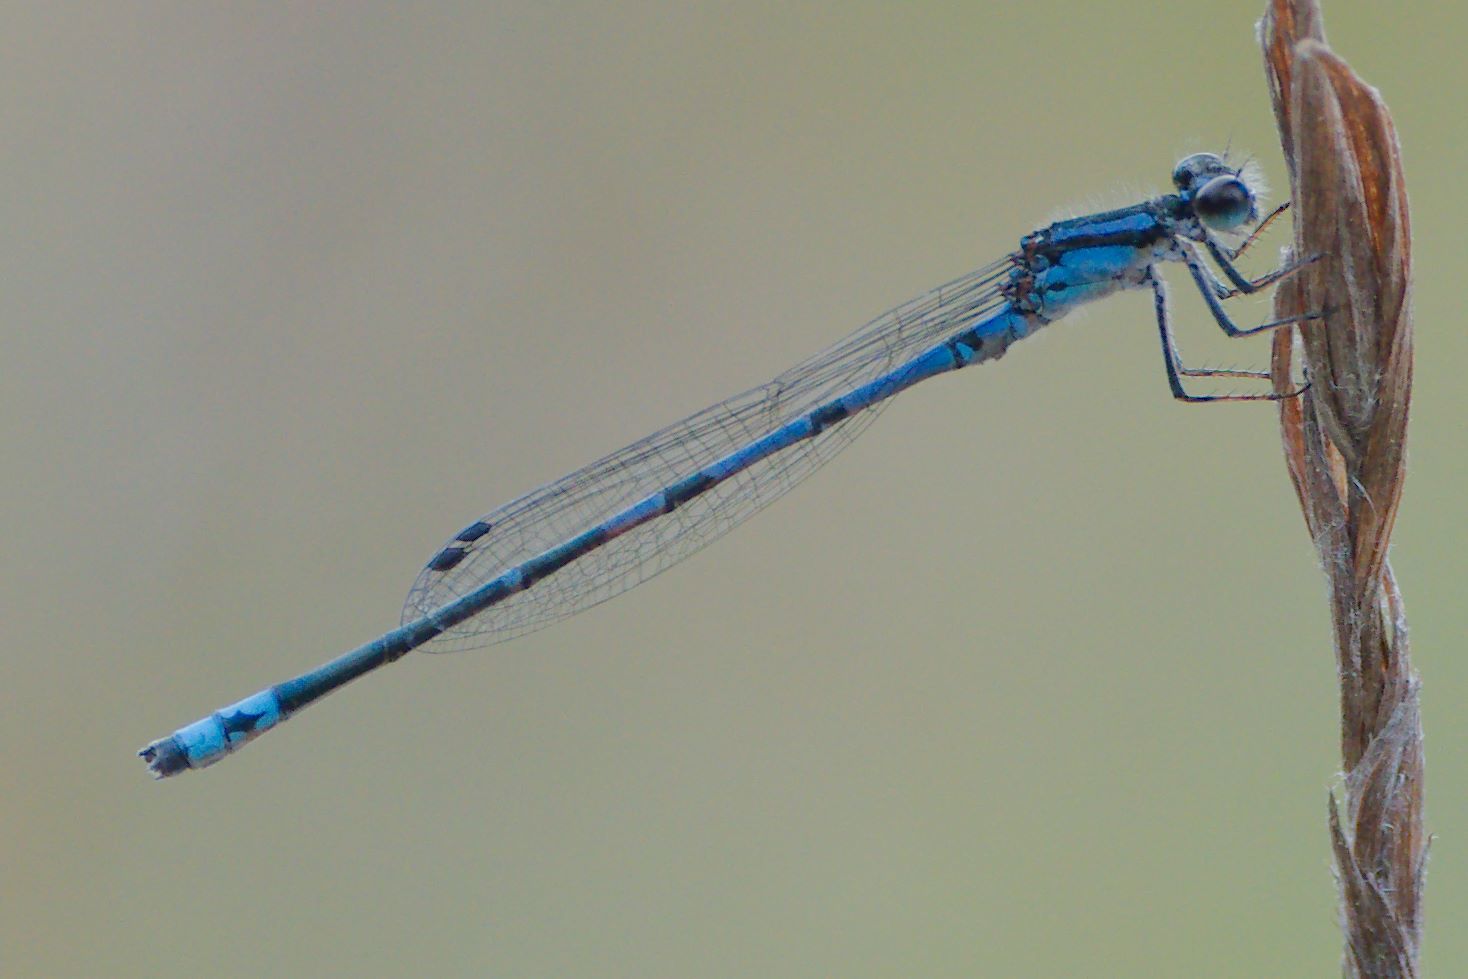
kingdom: Animalia
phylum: Arthropoda
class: Insecta
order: Odonata
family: Coenagrionidae
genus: Enallagma
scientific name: Enallagma davisi
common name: Sandhill bluet
